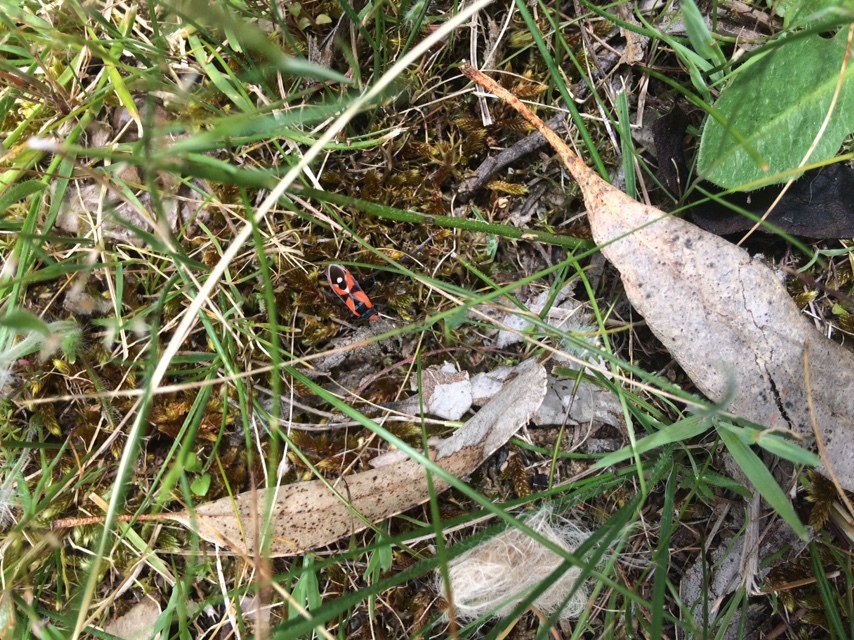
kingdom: Animalia
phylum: Arthropoda
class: Insecta
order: Hemiptera
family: Lygaeidae
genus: Melanerythrus
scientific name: Melanerythrus mactans
